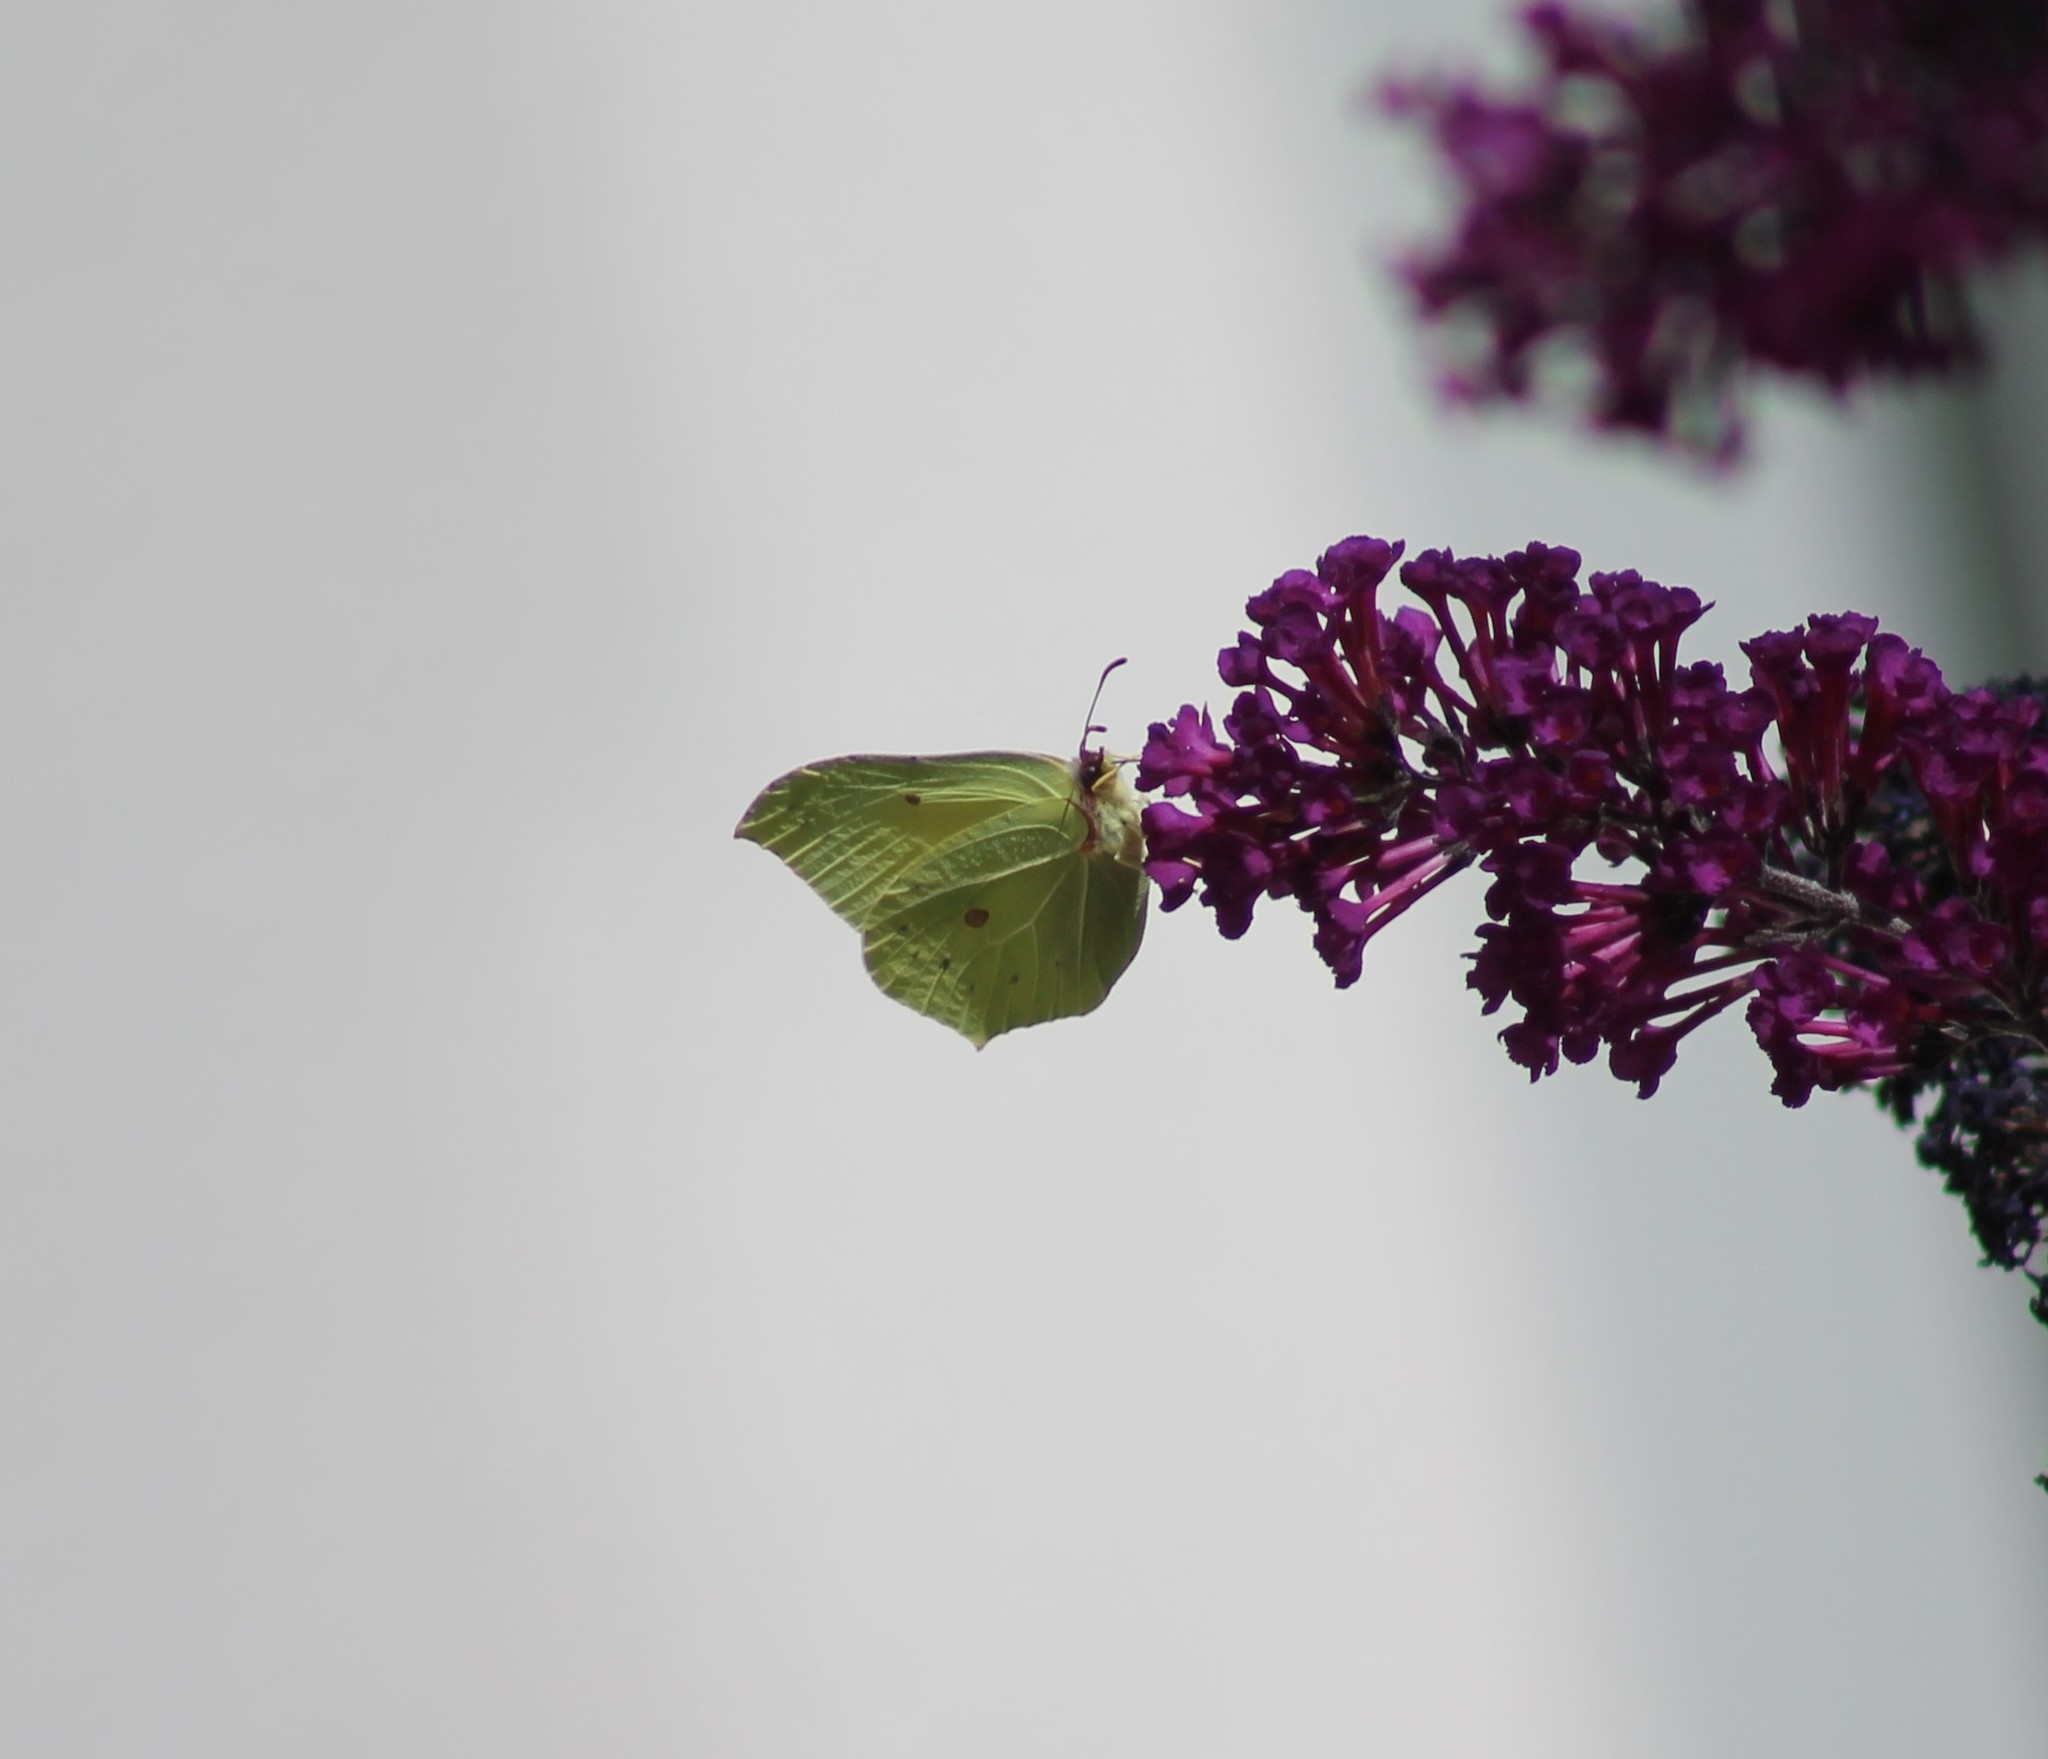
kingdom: Animalia
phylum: Arthropoda
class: Insecta
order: Lepidoptera
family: Pieridae
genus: Gonepteryx
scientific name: Gonepteryx rhamni
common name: Brimstone
